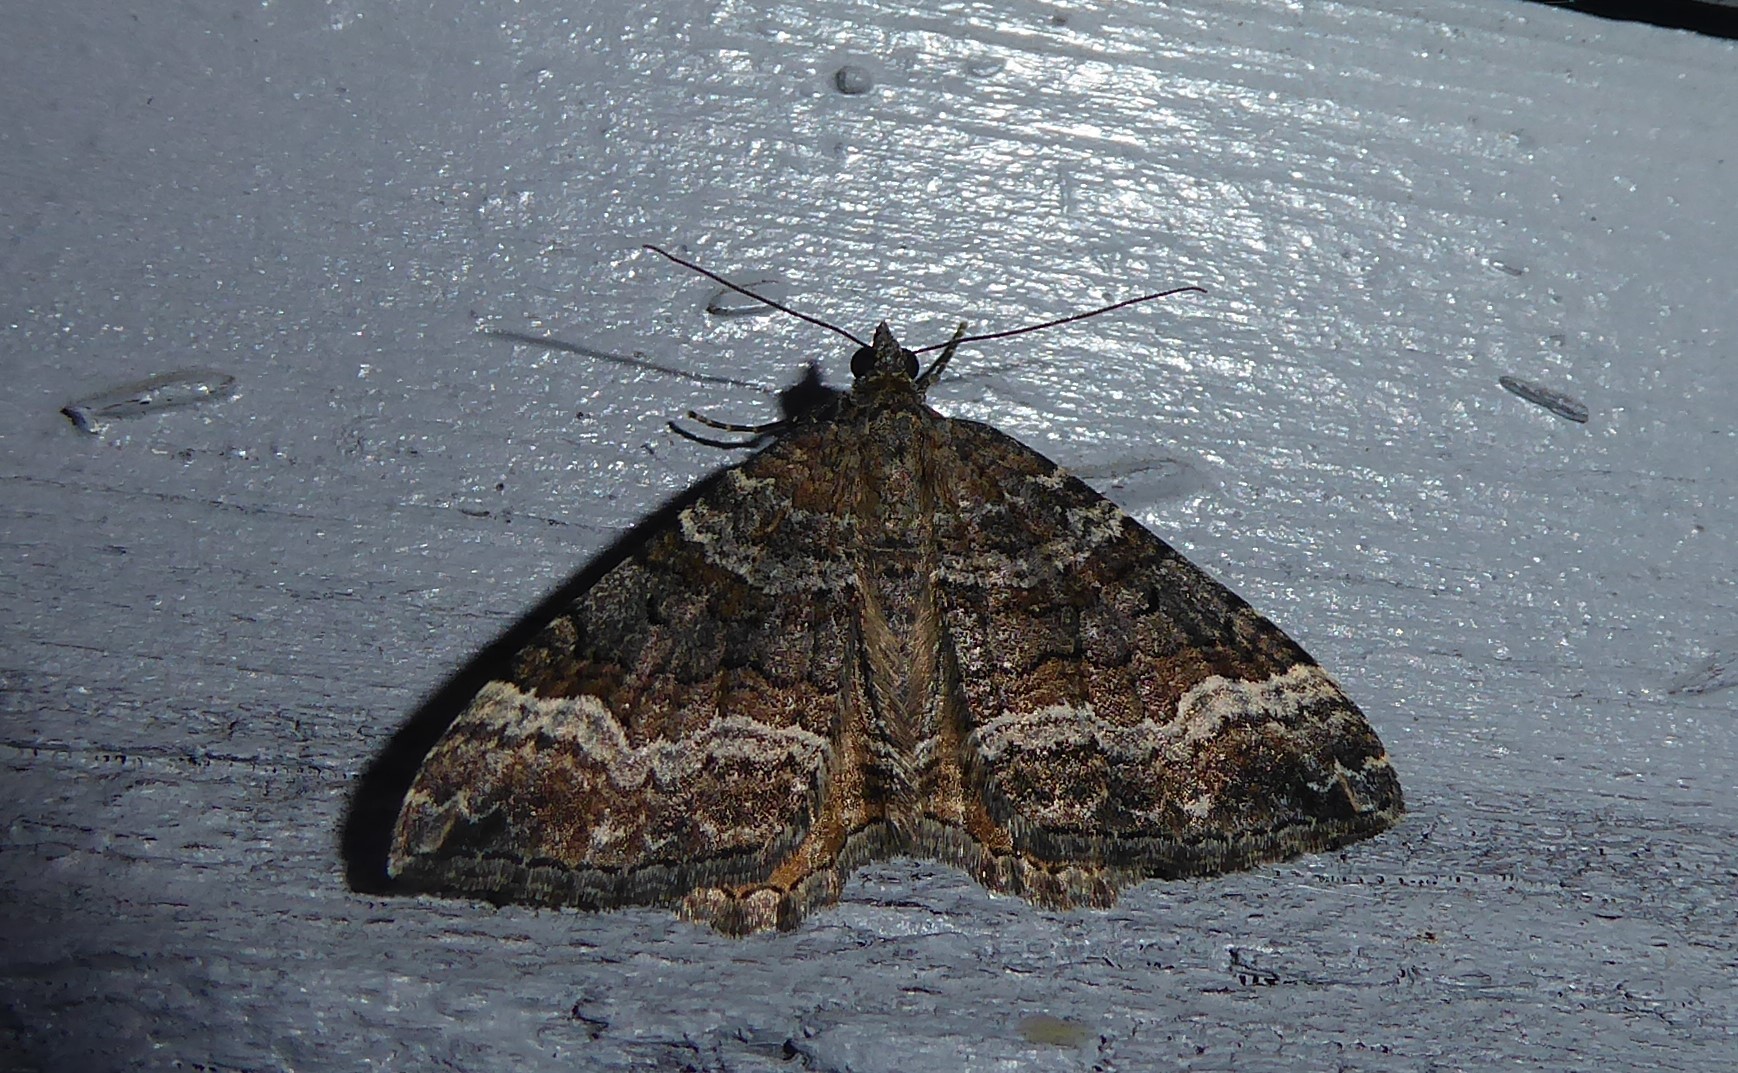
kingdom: Animalia
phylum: Arthropoda
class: Insecta
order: Lepidoptera
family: Geometridae
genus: Hydriomena
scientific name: Hydriomena deltoidata
